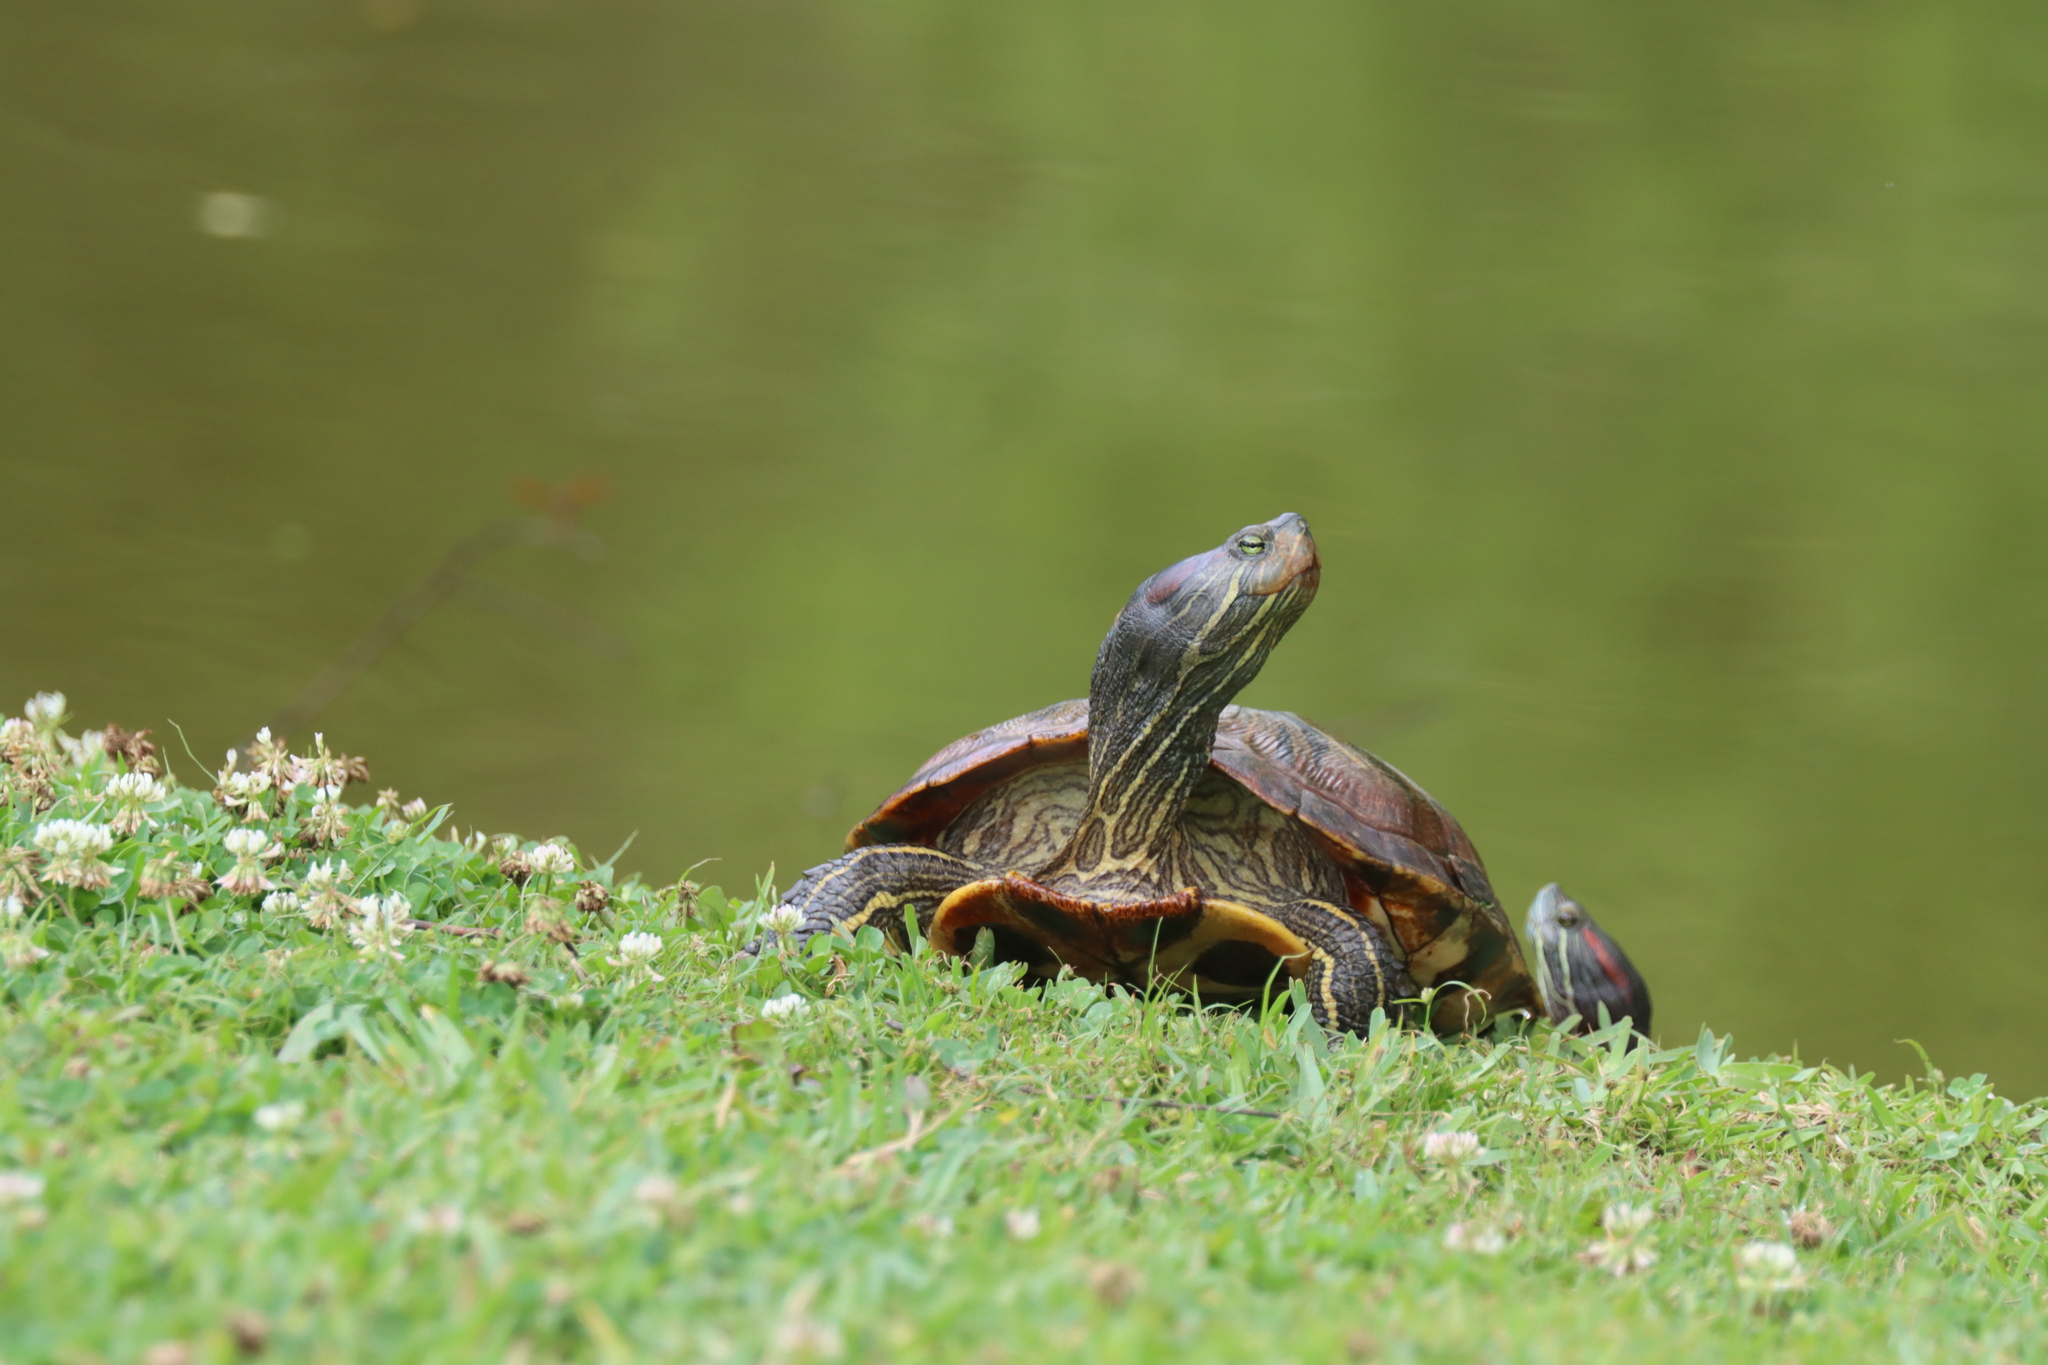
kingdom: Animalia
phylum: Chordata
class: Testudines
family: Emydidae
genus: Trachemys
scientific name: Trachemys scripta
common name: Slider
